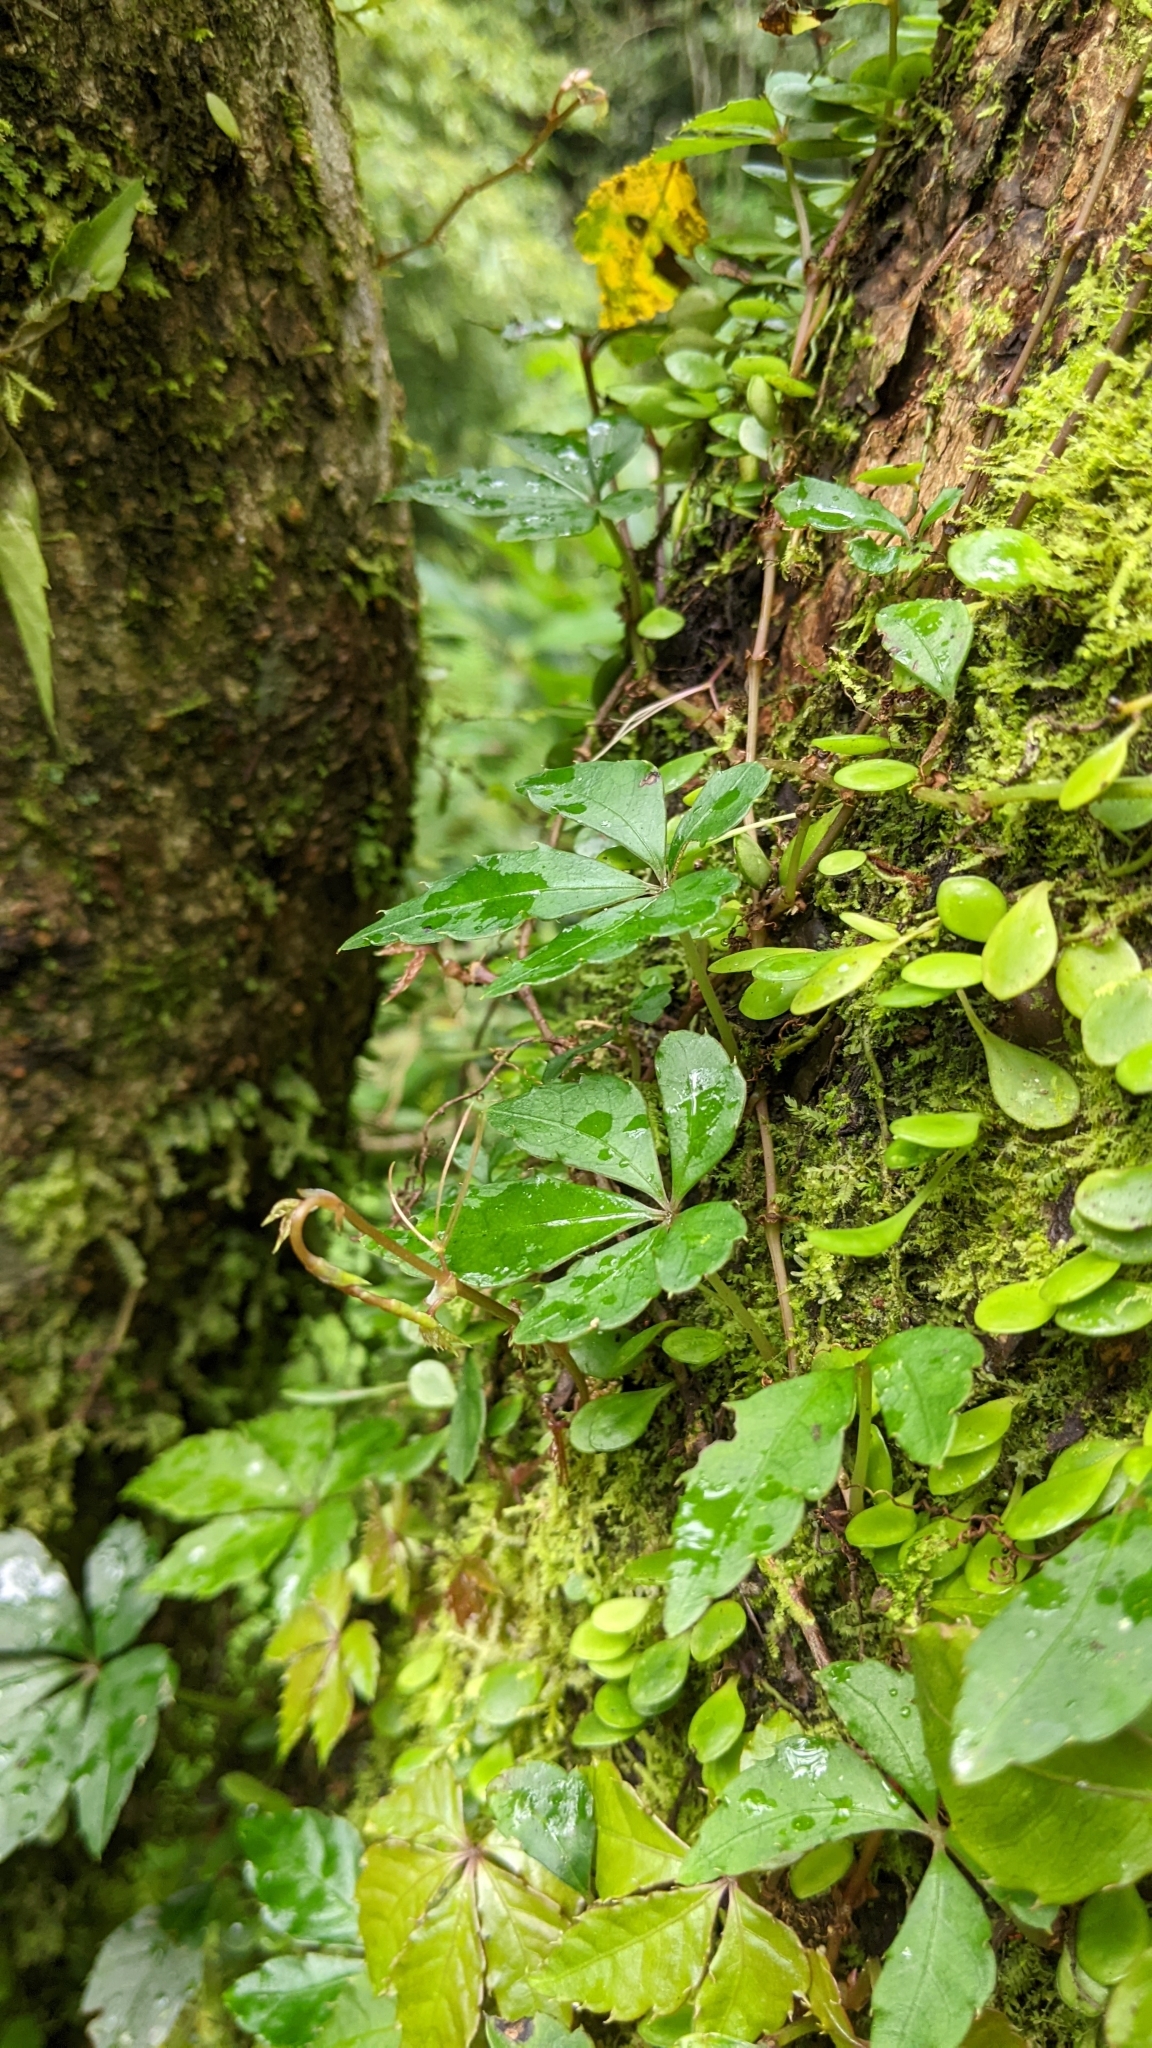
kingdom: Plantae
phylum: Tracheophyta
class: Magnoliopsida
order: Vitales
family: Vitaceae
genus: Tetrastigma
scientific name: Tetrastigma obtectum
